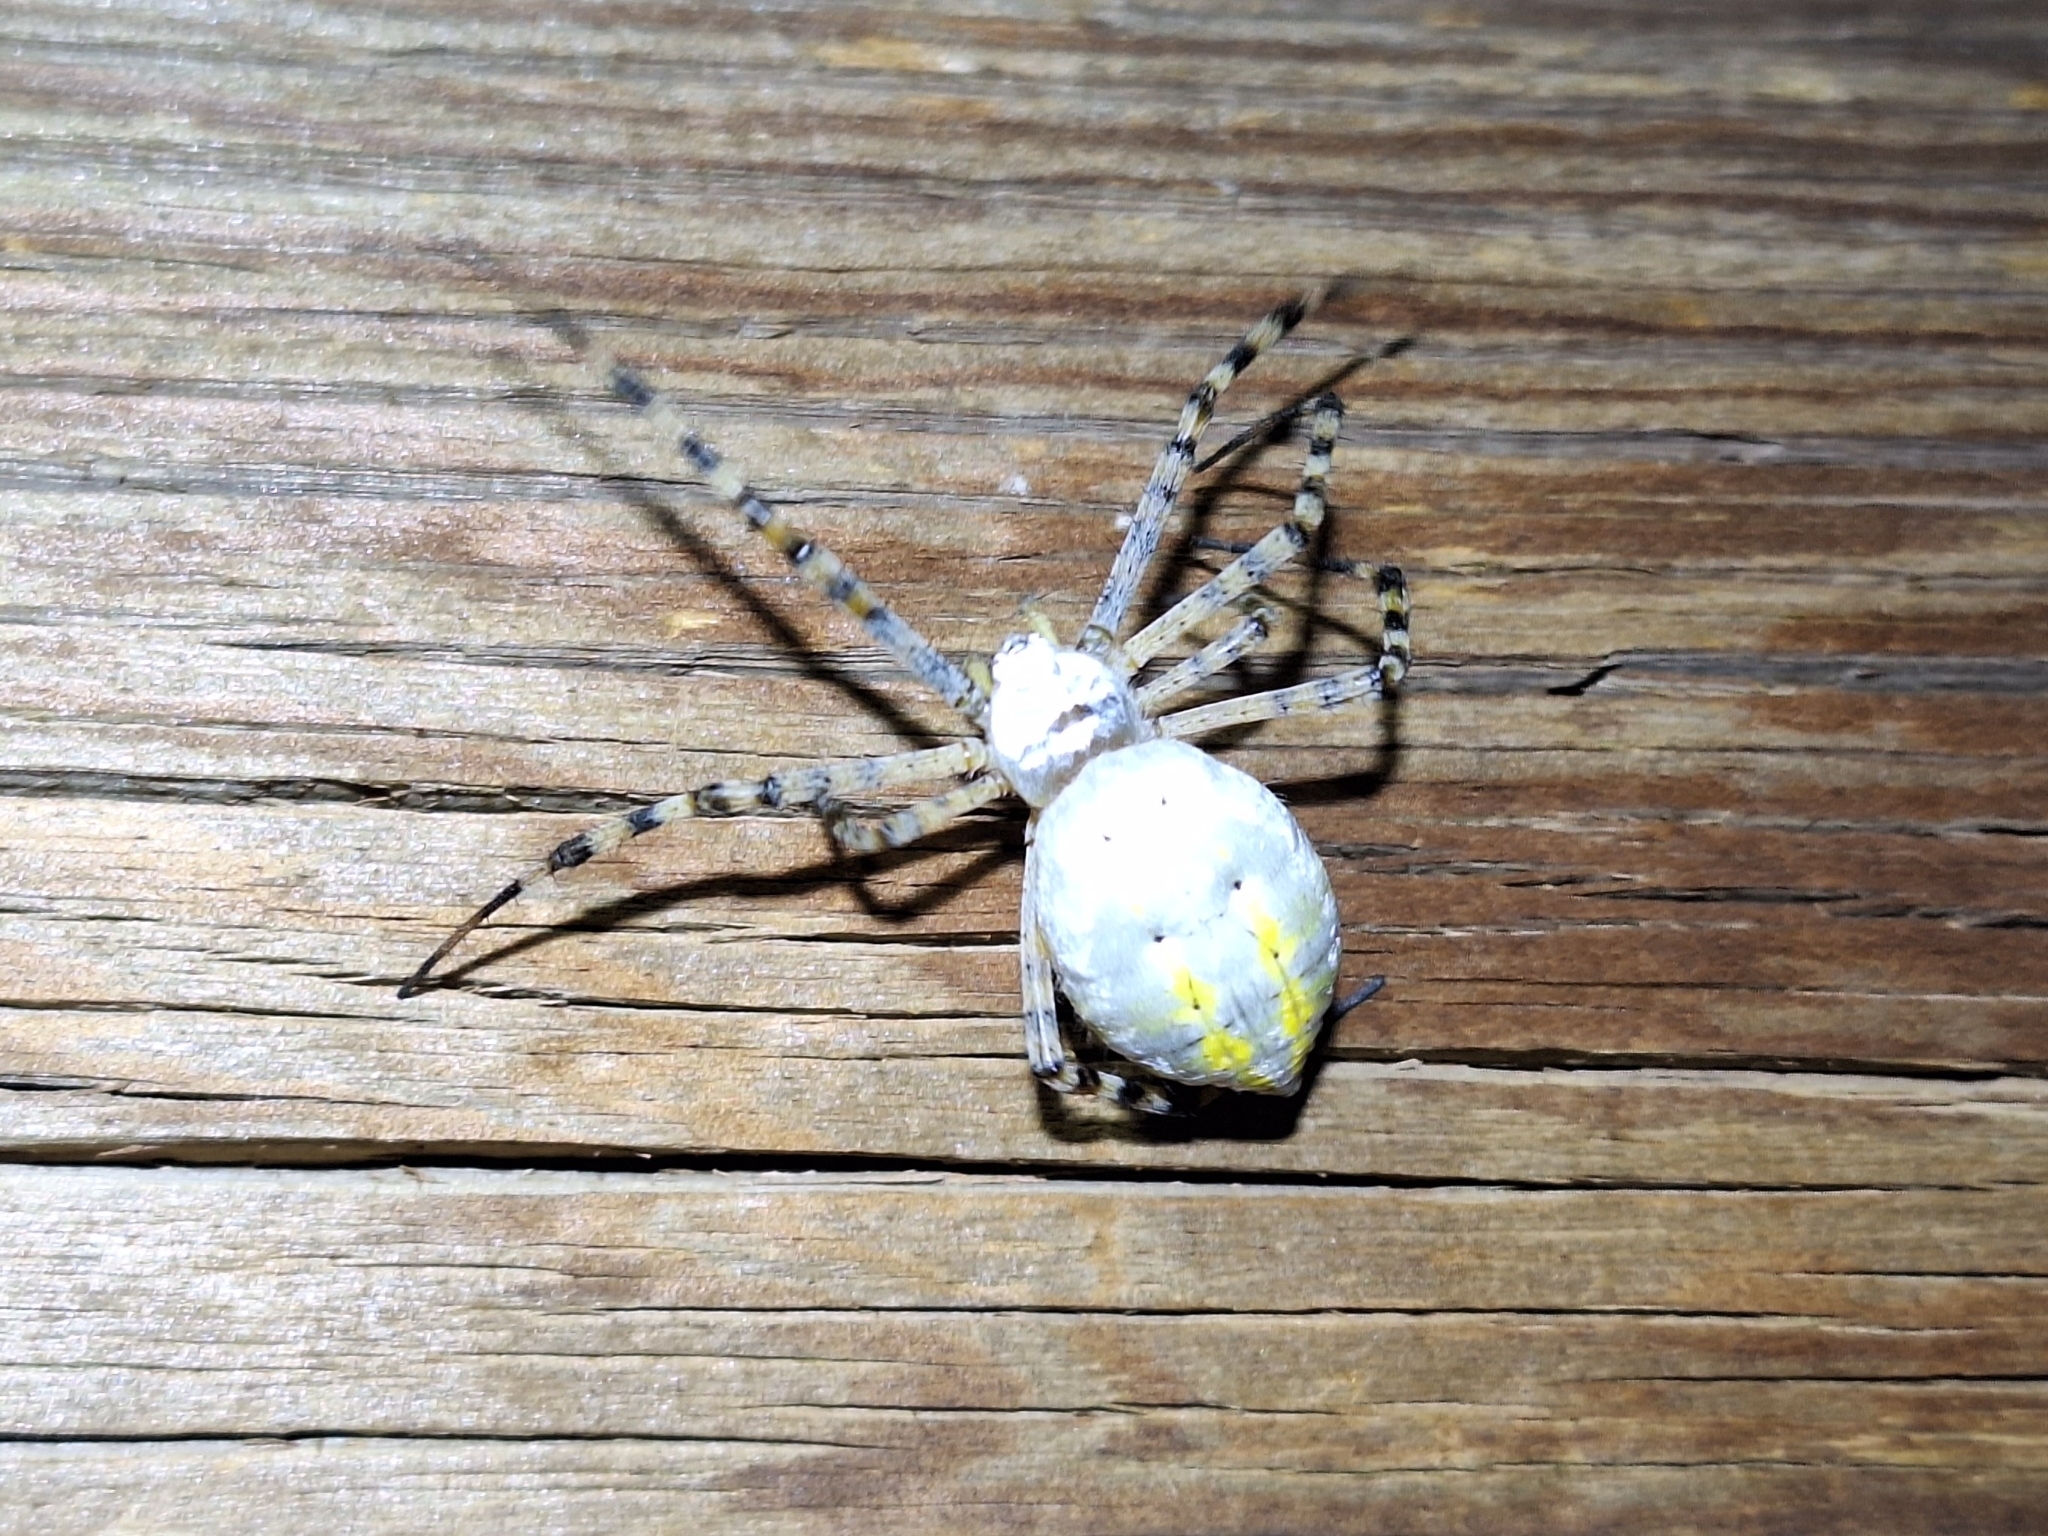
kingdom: Animalia
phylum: Arthropoda
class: Arachnida
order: Araneae
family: Araneidae
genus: Argiope
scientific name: Argiope trifasciata
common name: Banded garden spider
